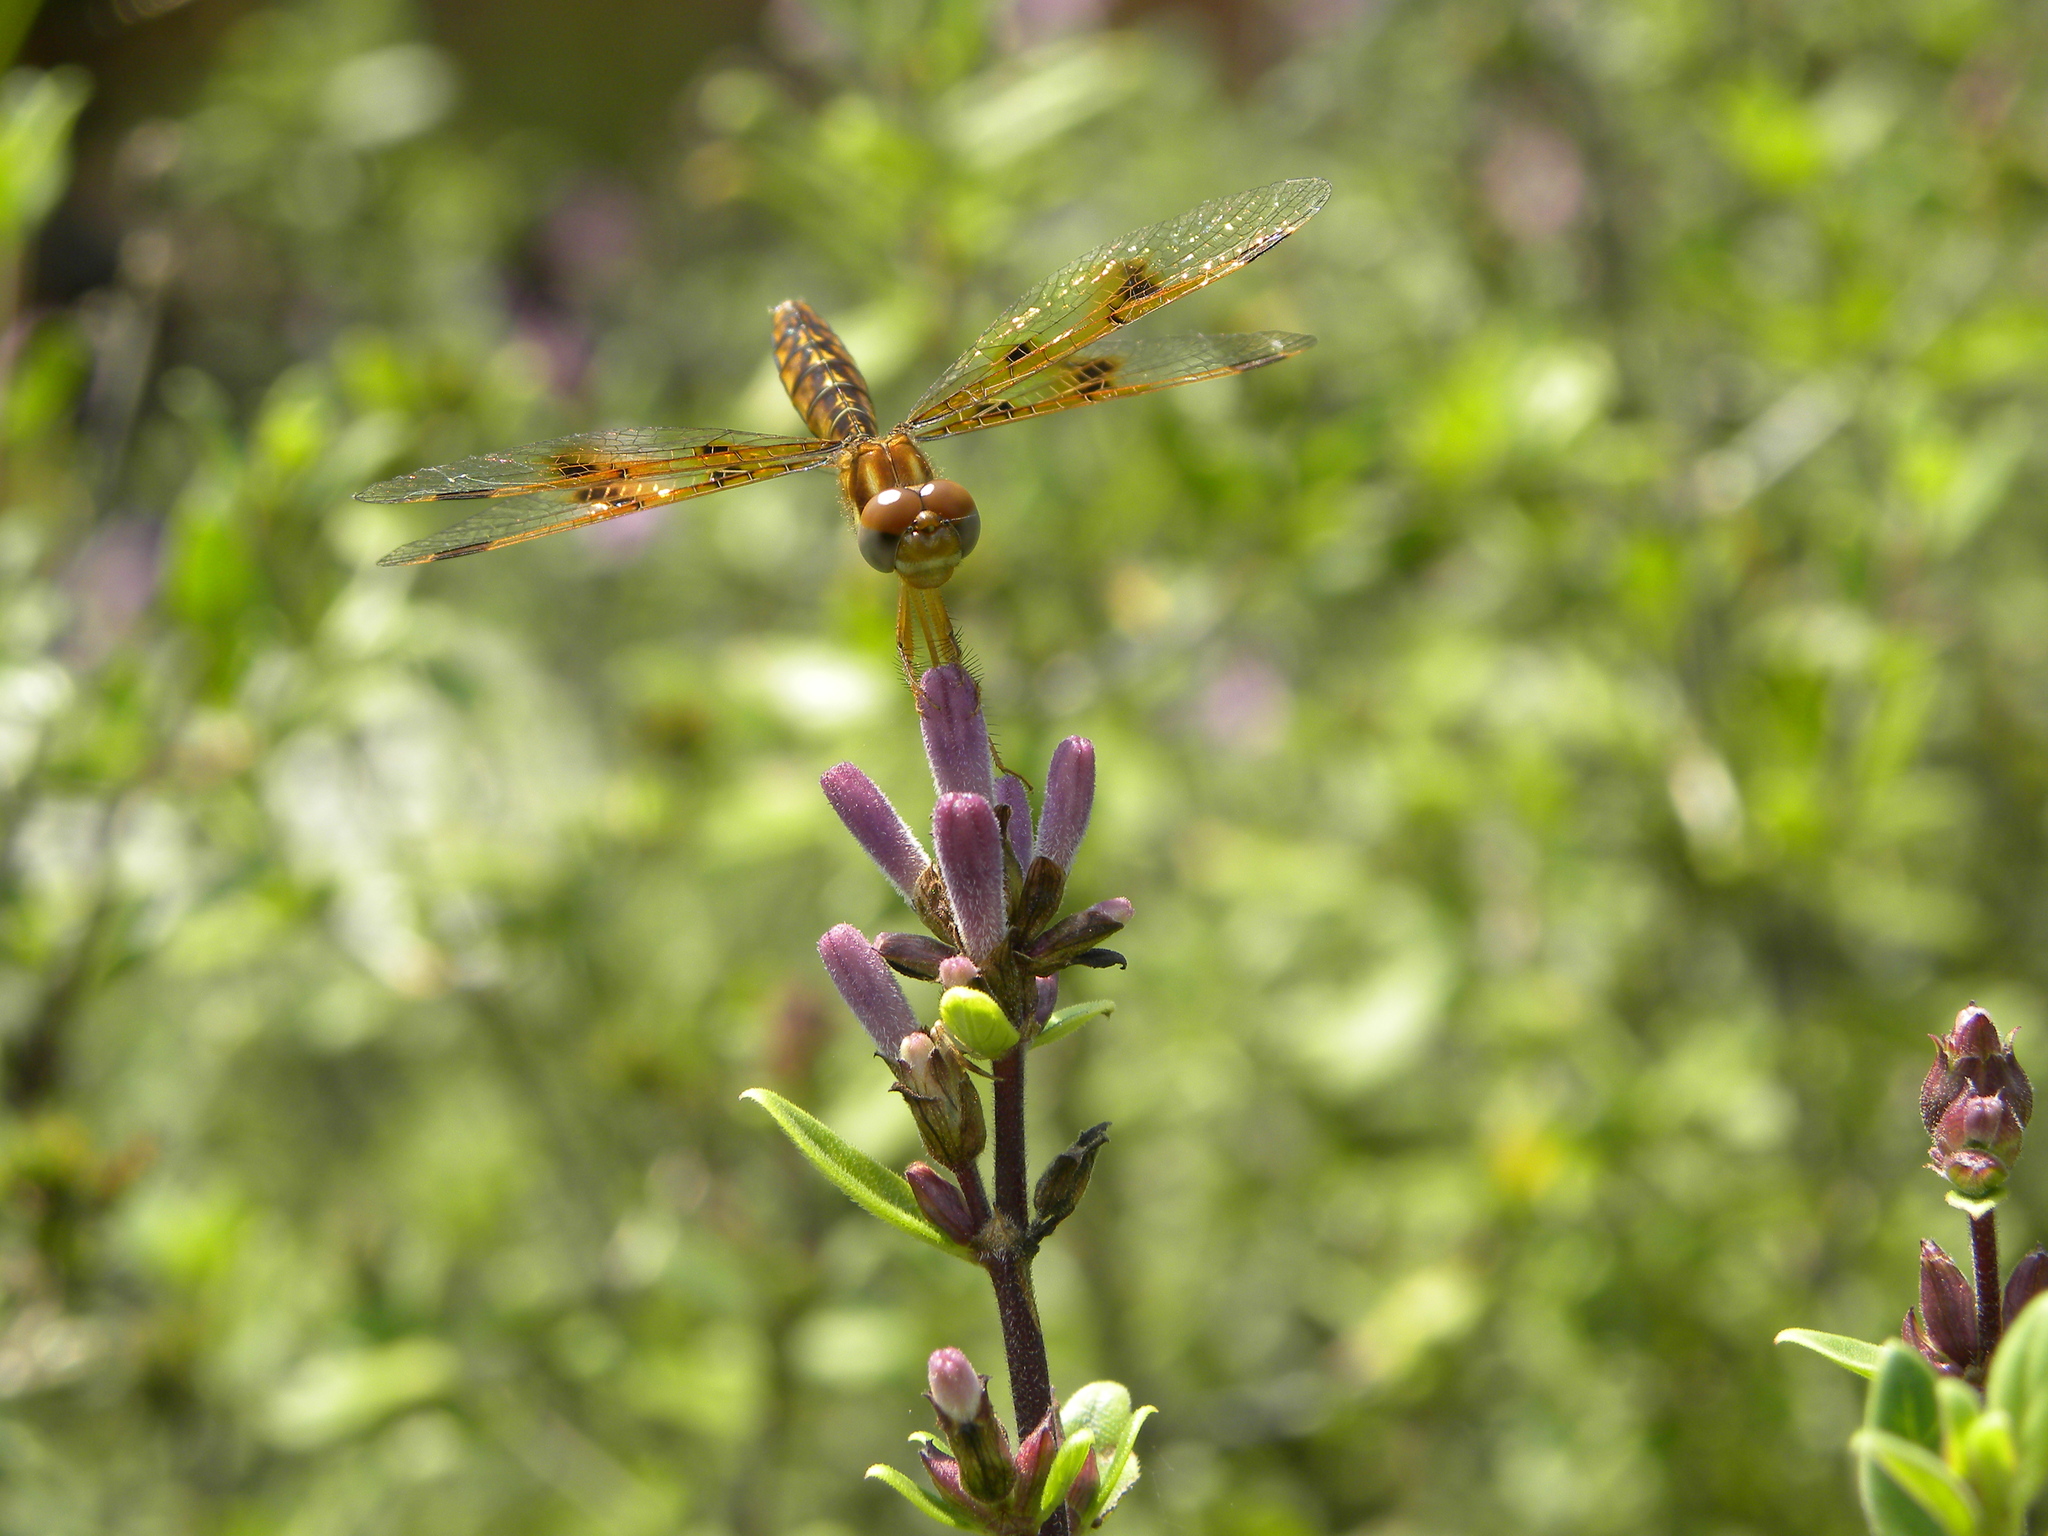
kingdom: Animalia
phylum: Arthropoda
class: Insecta
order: Odonata
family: Libellulidae
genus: Perithemis
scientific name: Perithemis tenera
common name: Eastern amberwing
